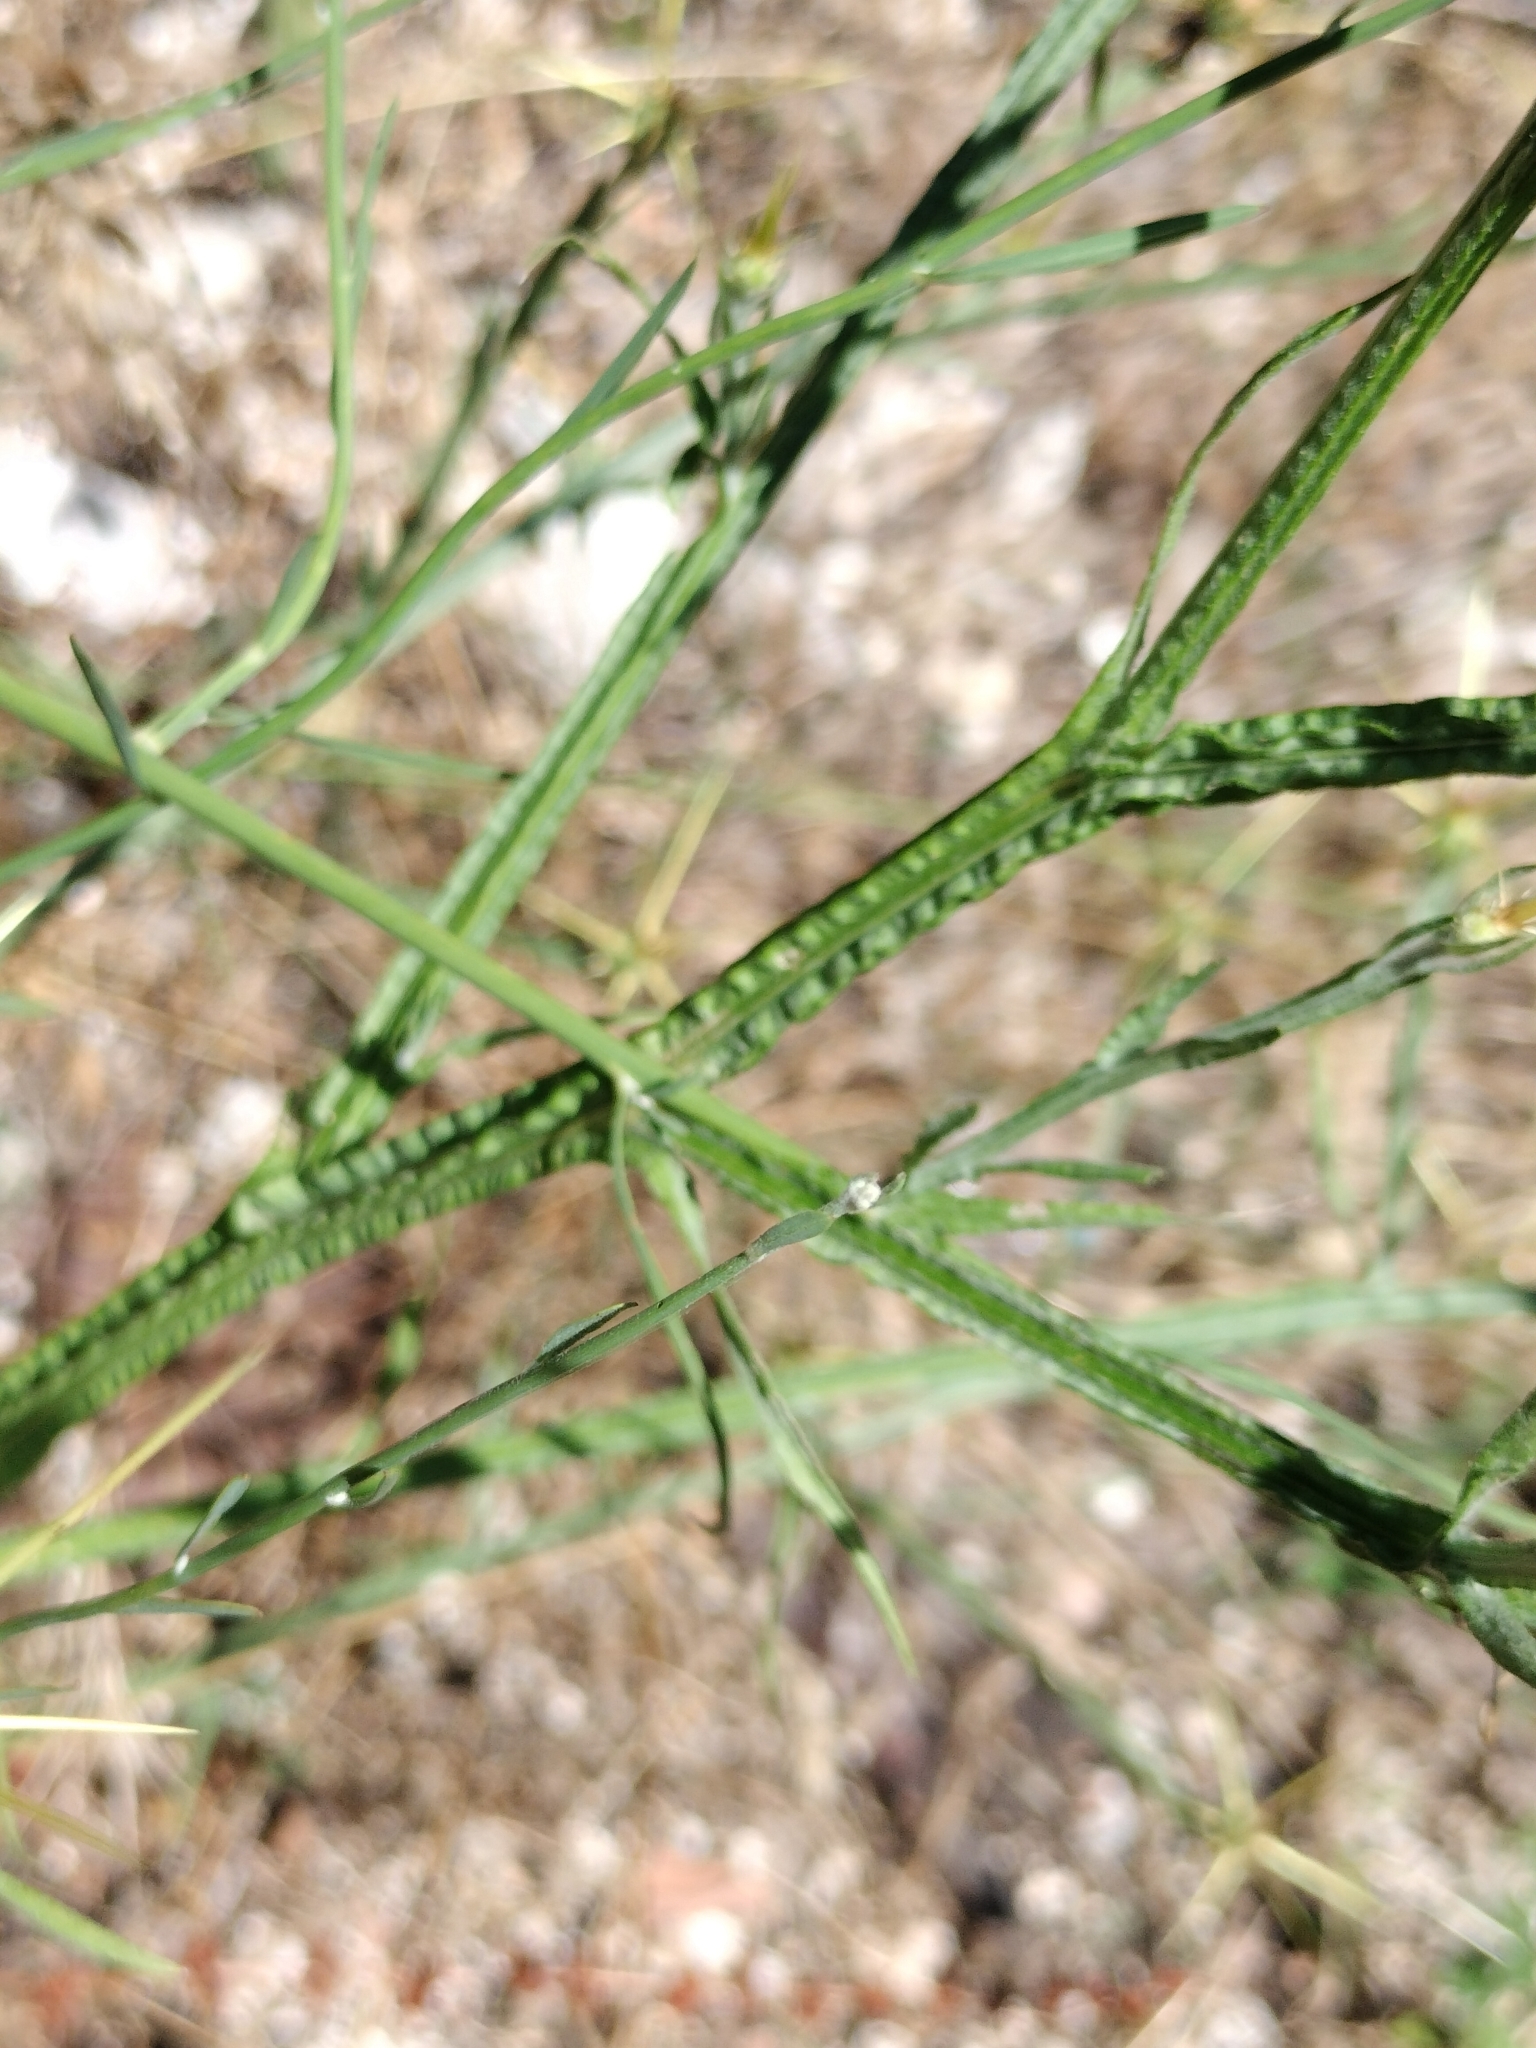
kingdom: Plantae
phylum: Tracheophyta
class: Magnoliopsida
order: Asterales
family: Asteraceae
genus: Centaurea
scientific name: Centaurea solstitialis
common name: Yellow star-thistle
